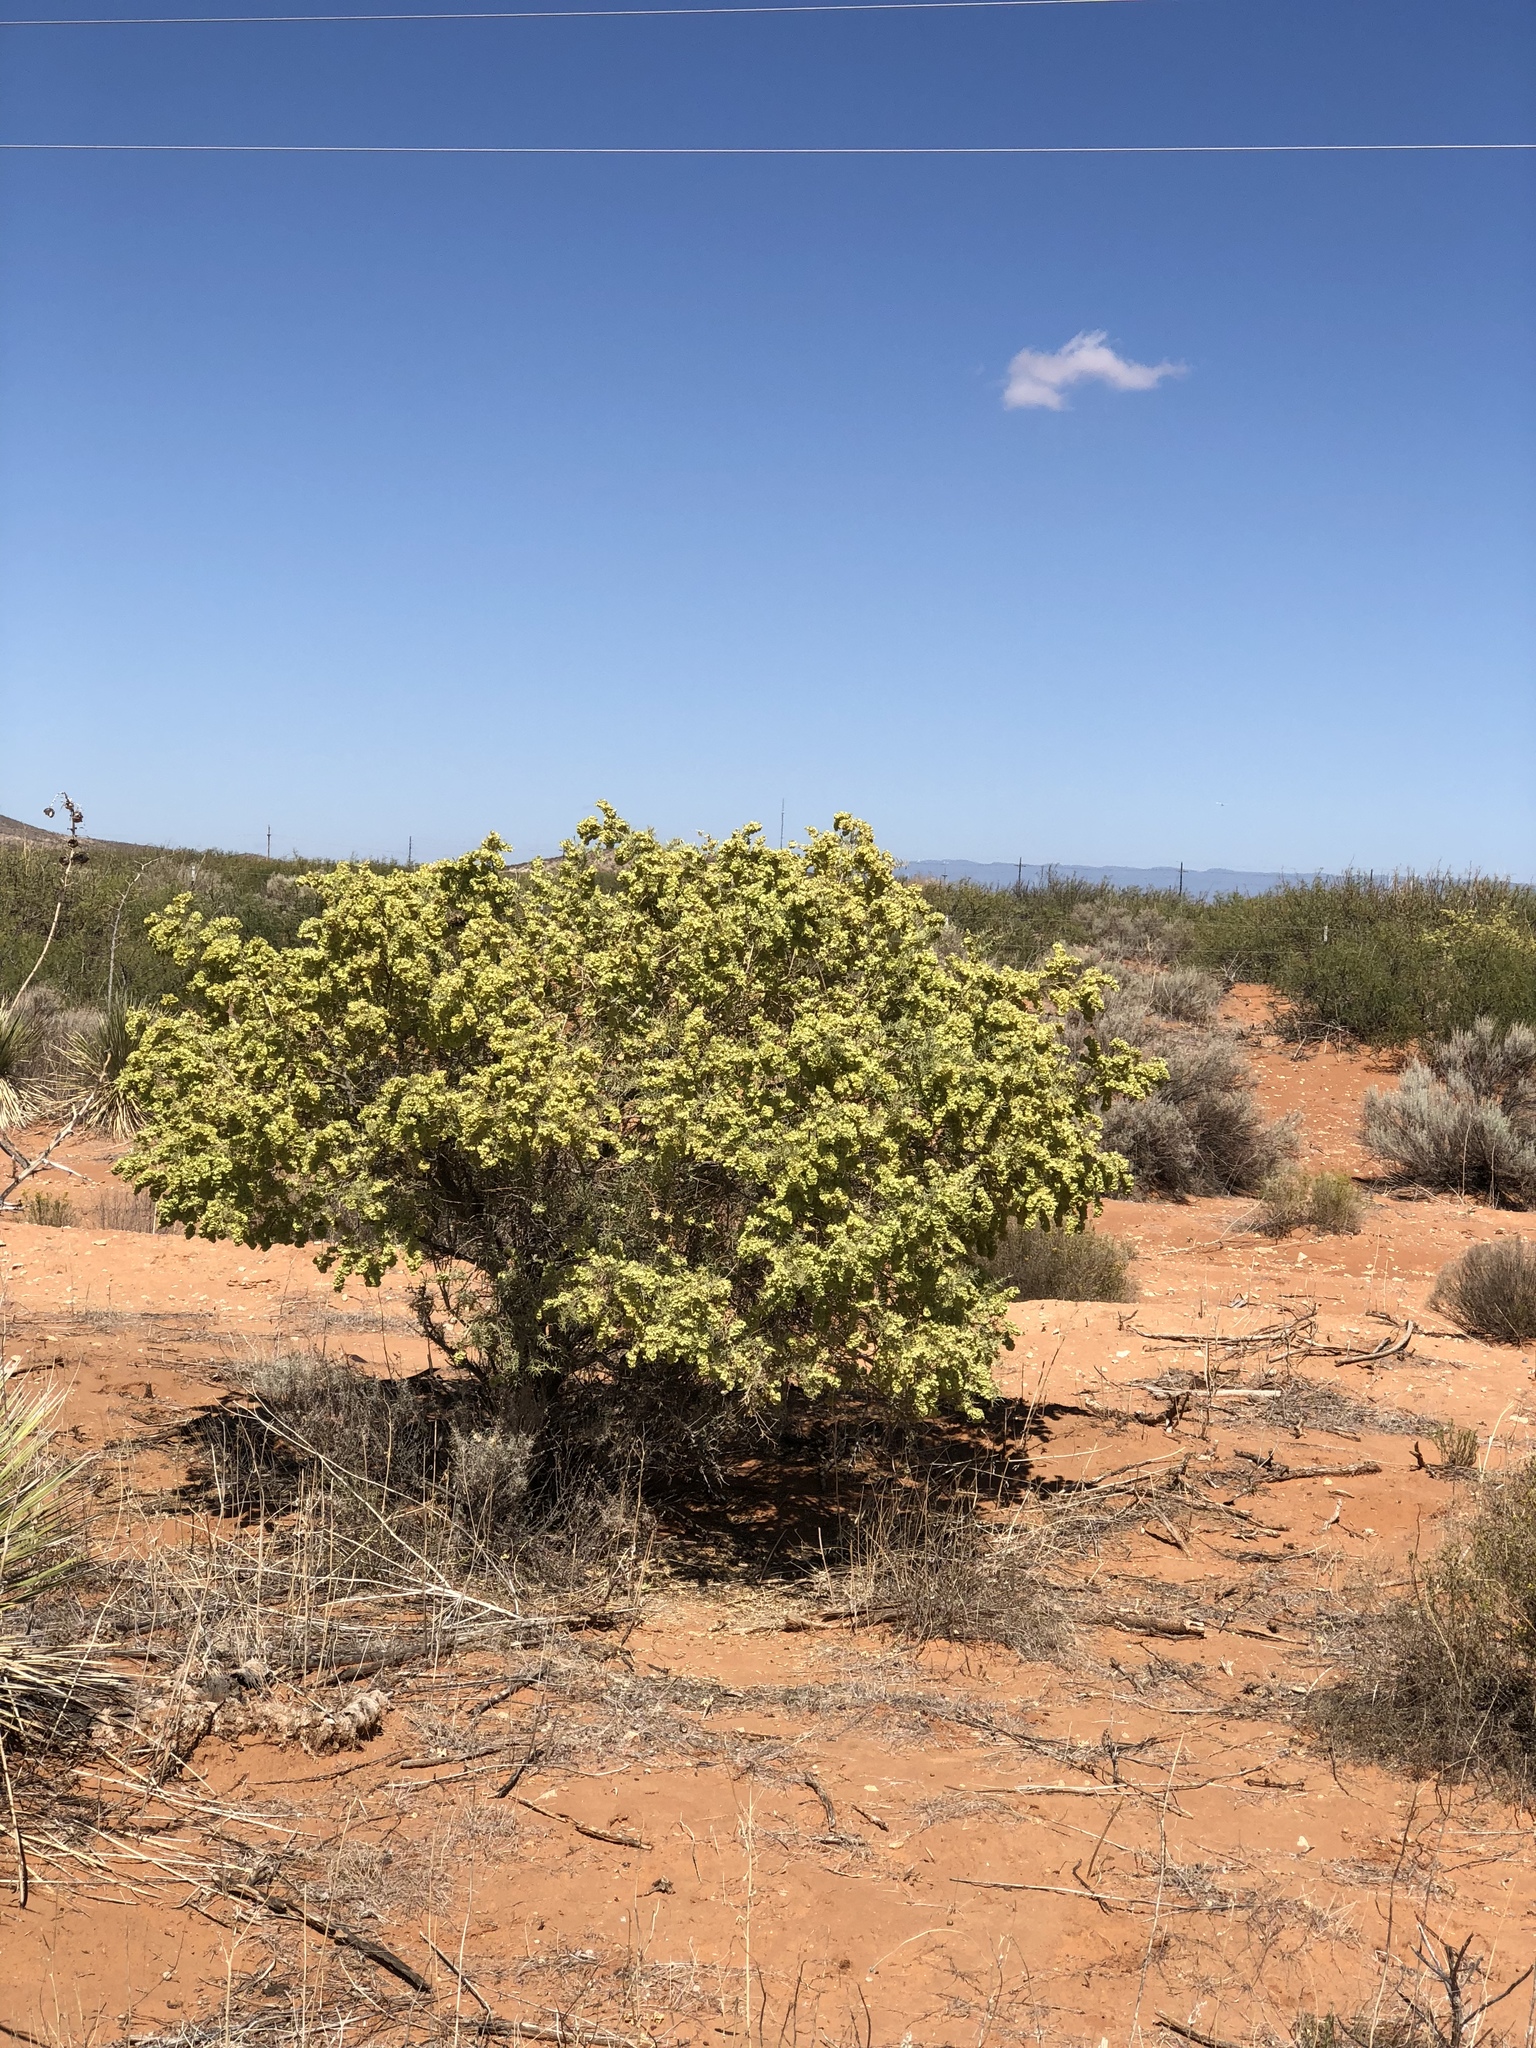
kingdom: Plantae
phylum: Tracheophyta
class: Magnoliopsida
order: Caryophyllales
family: Amaranthaceae
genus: Atriplex
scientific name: Atriplex canescens
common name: Four-wing saltbush
